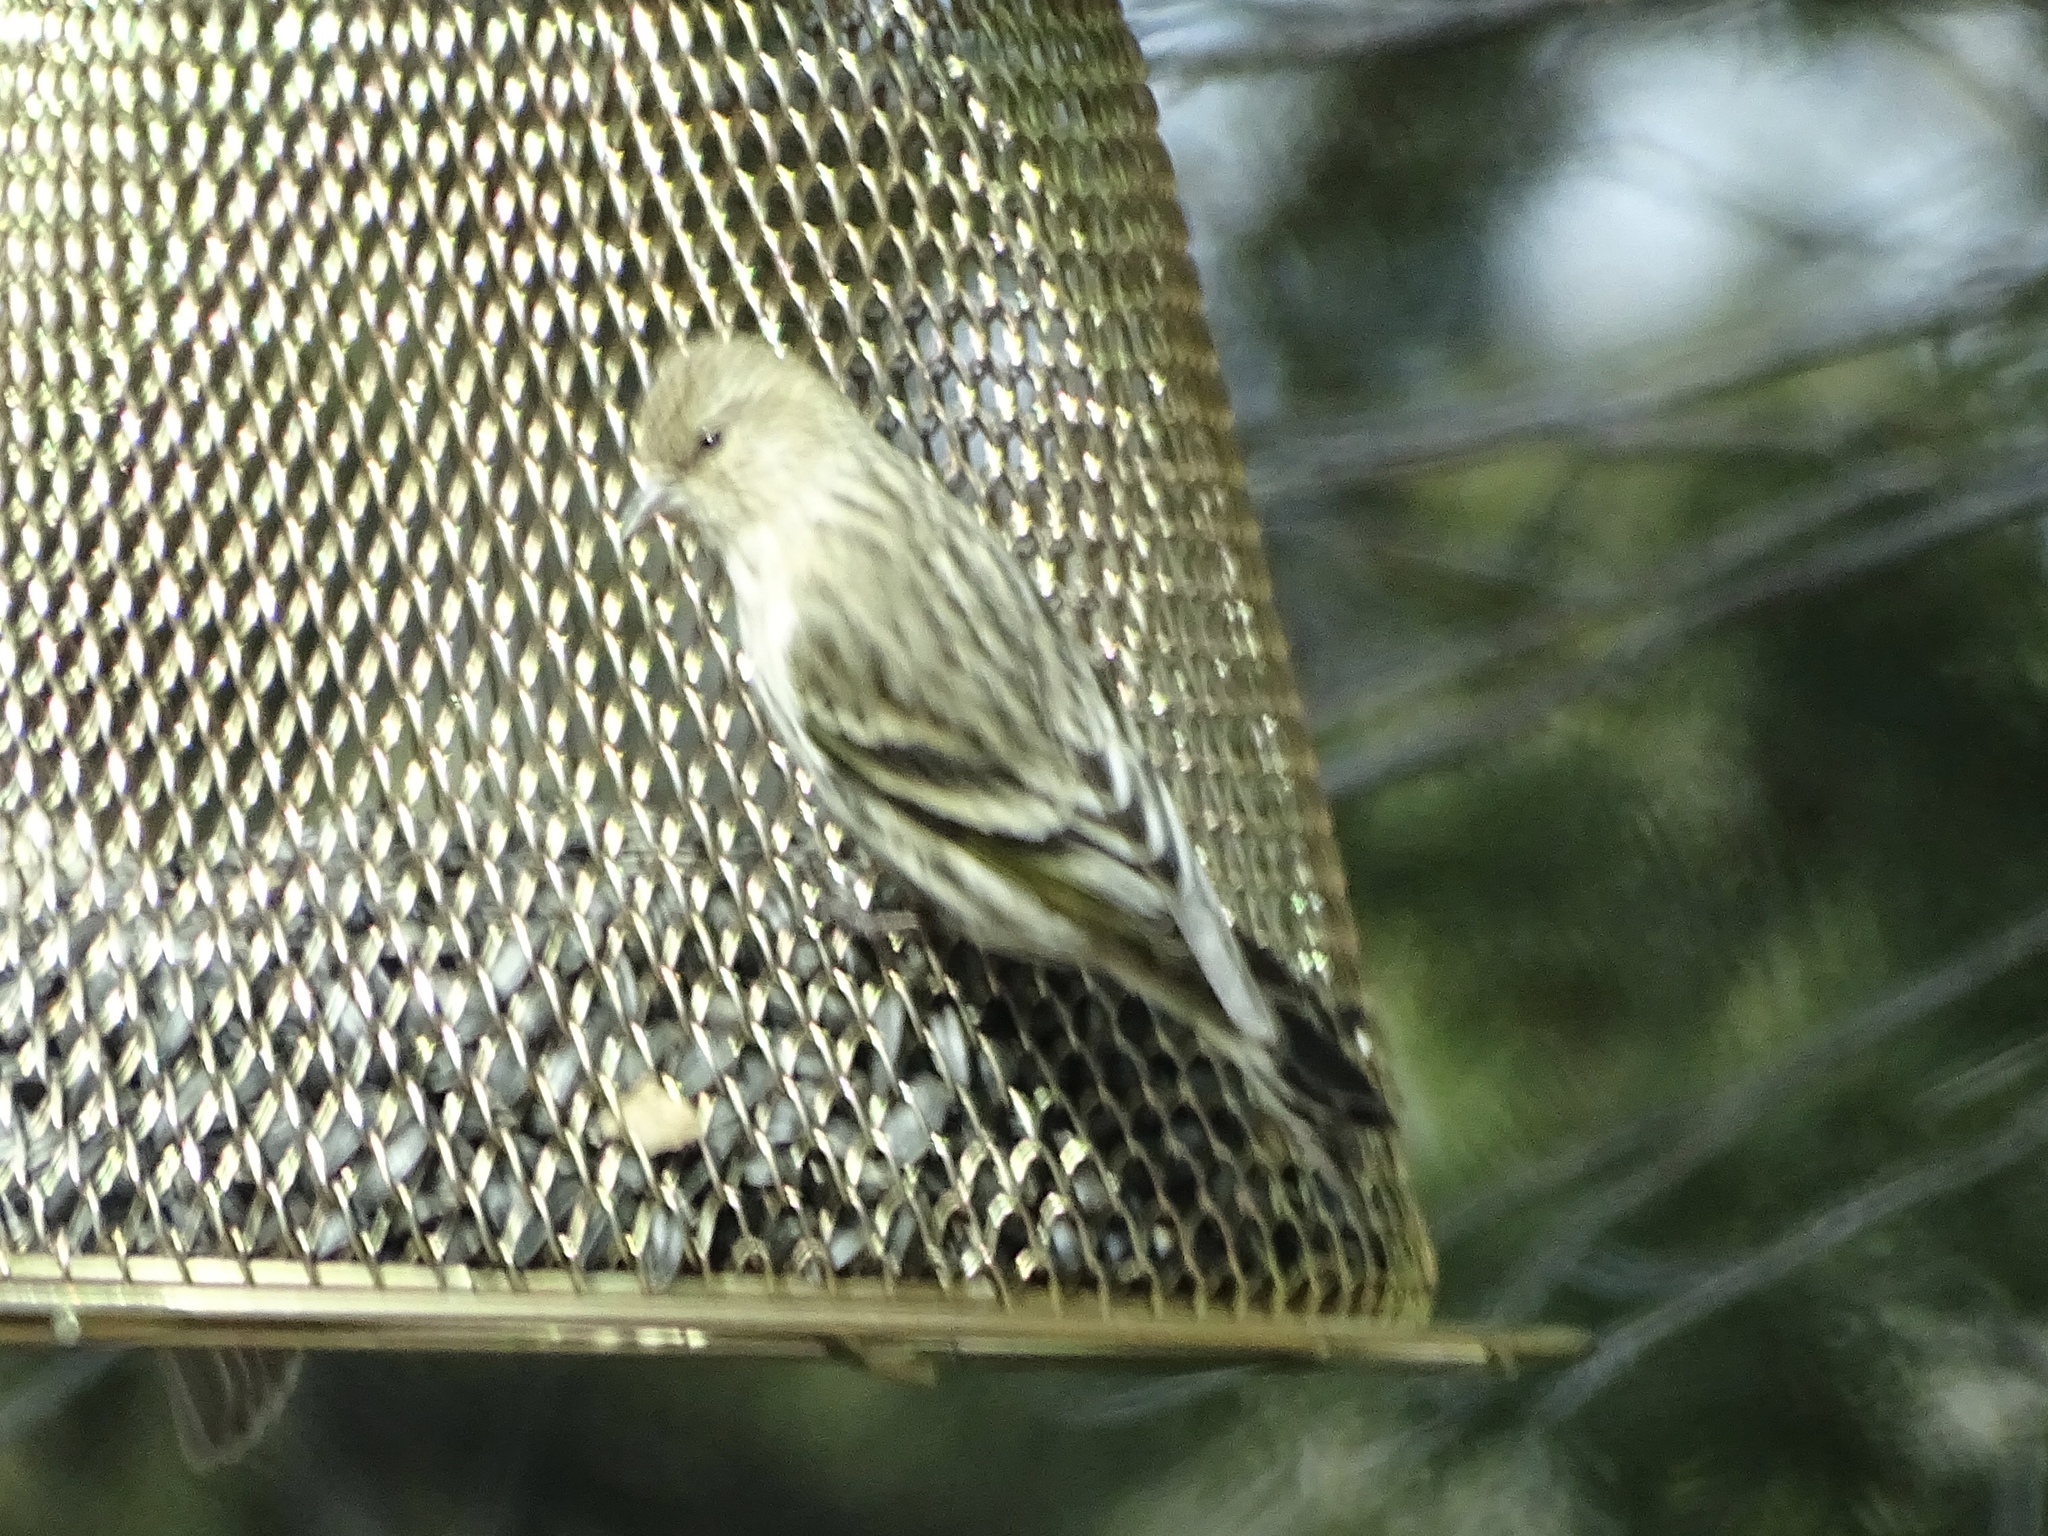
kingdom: Animalia
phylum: Chordata
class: Aves
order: Passeriformes
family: Fringillidae
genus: Spinus
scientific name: Spinus pinus
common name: Pine siskin
